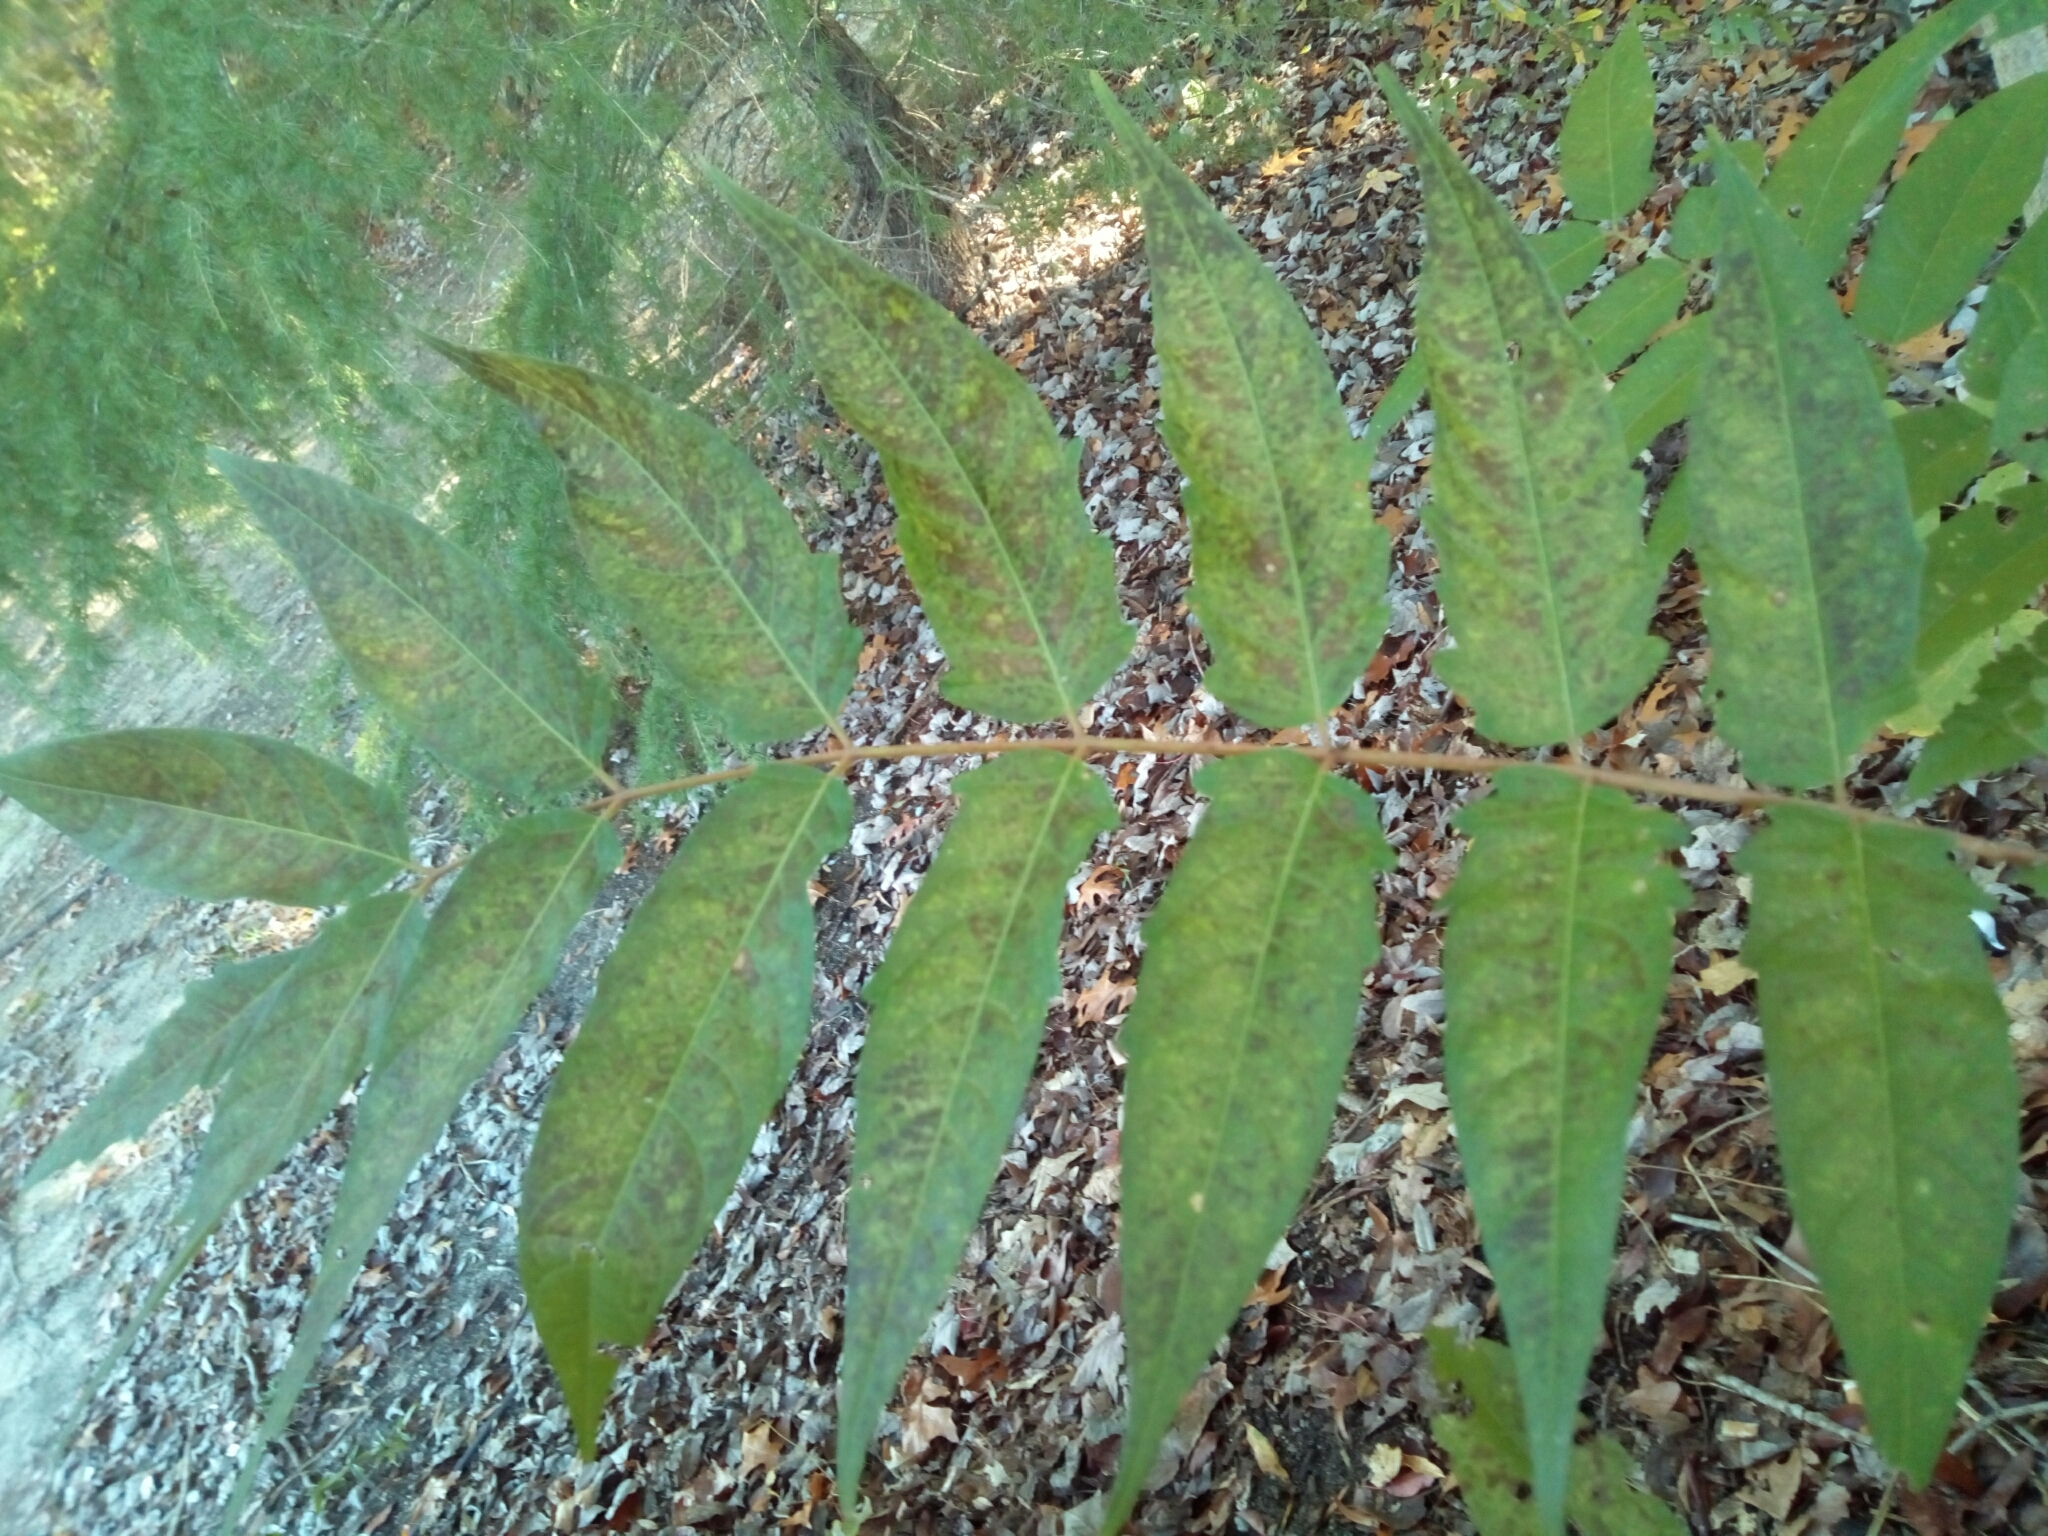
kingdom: Plantae
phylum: Tracheophyta
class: Magnoliopsida
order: Sapindales
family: Simaroubaceae
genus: Ailanthus
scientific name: Ailanthus altissima
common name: Tree-of-heaven
